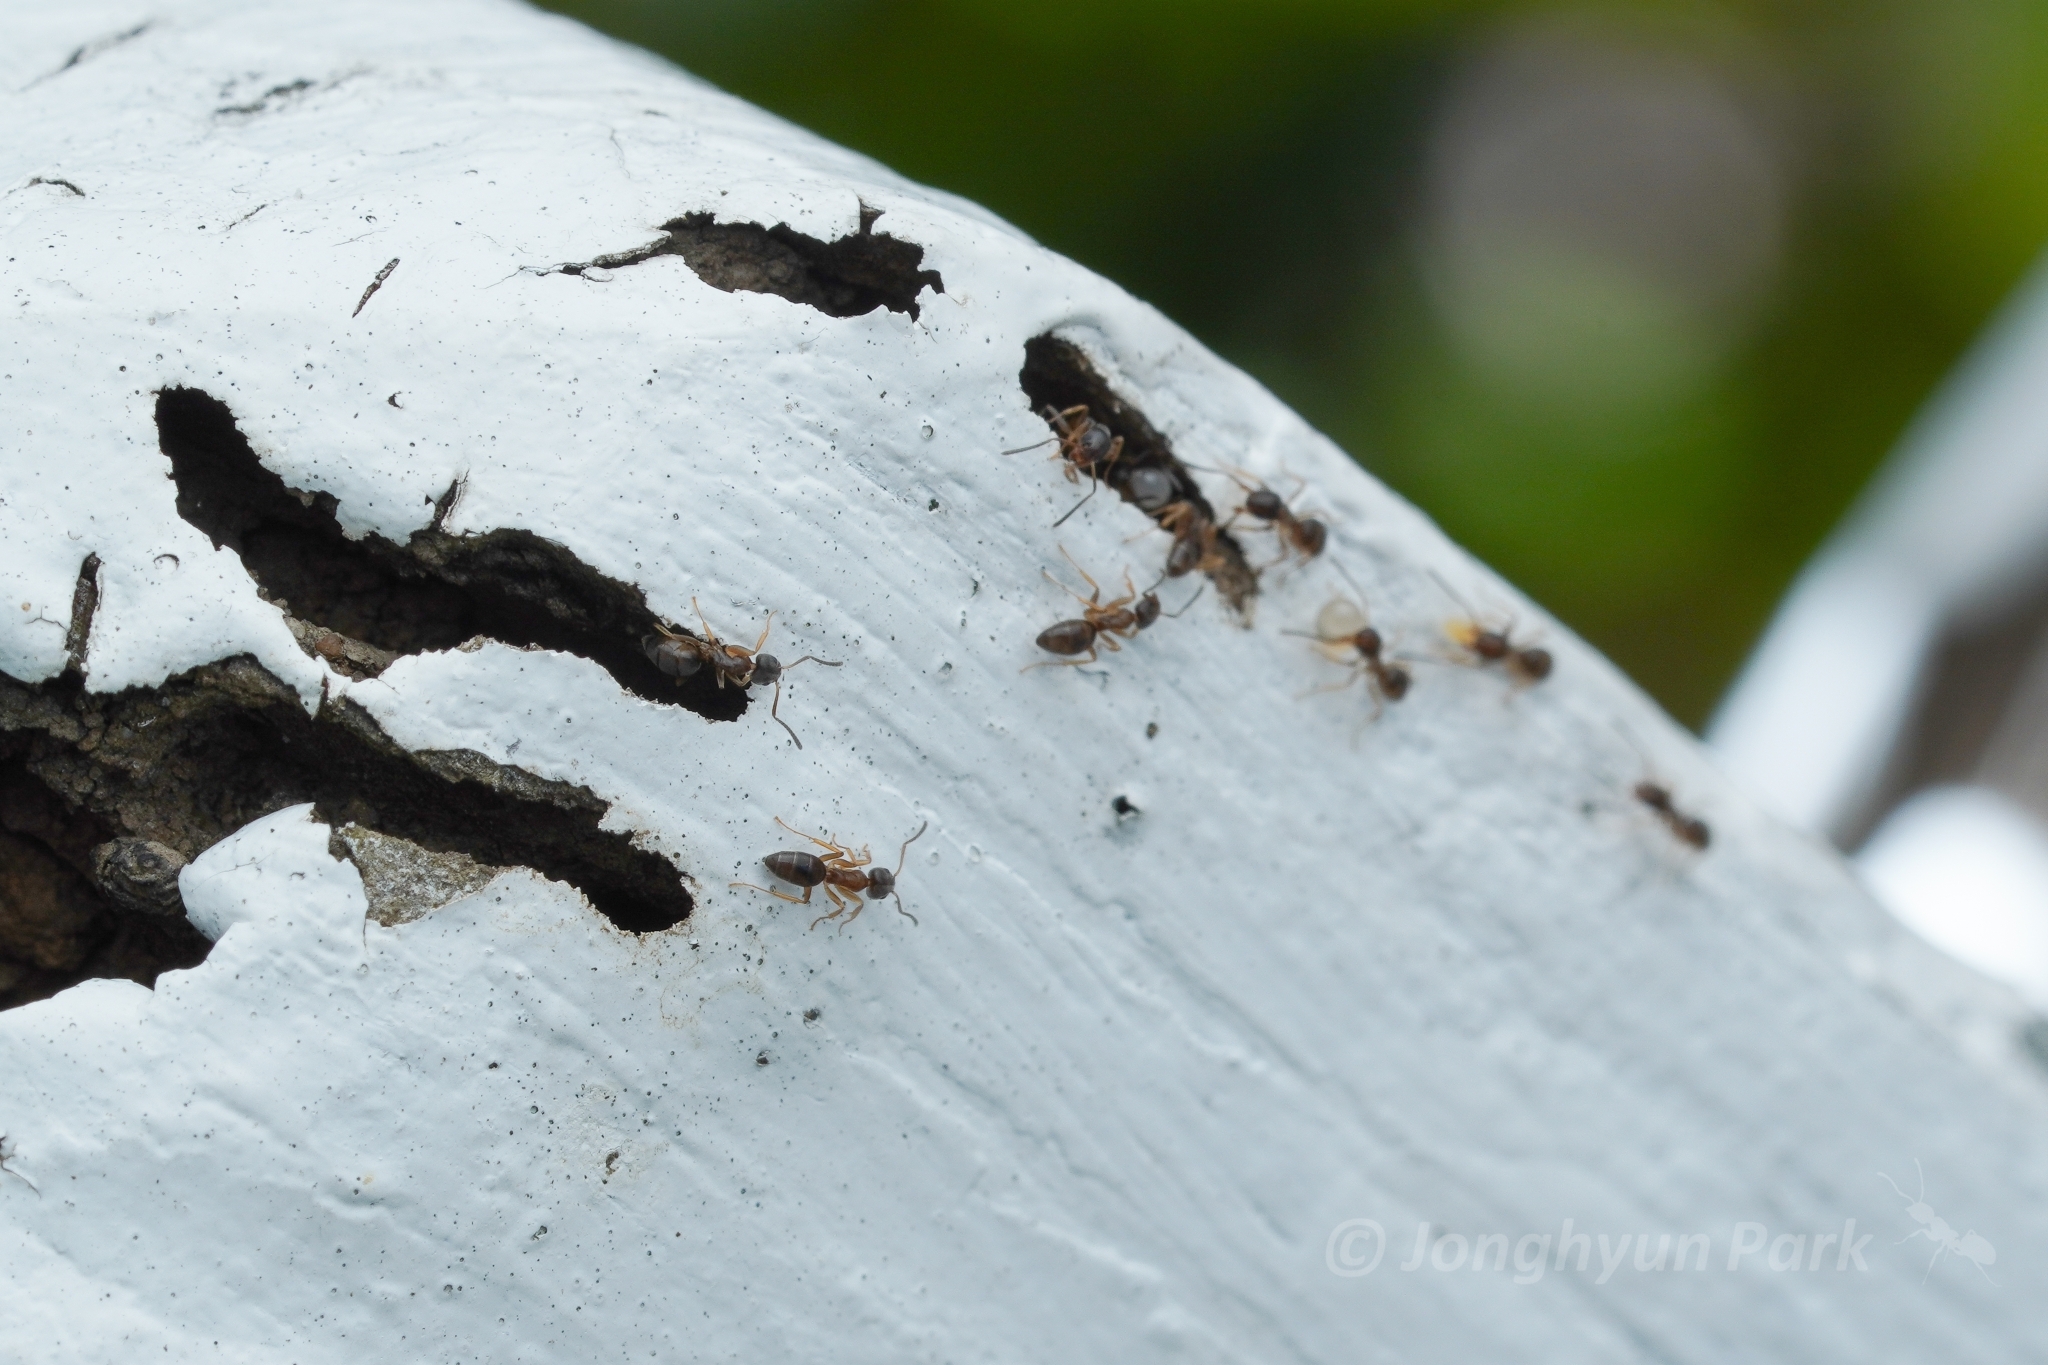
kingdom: Animalia
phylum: Arthropoda
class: Insecta
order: Hymenoptera
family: Formicidae
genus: Tapinoma
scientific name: Tapinoma sessile
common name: Odorous house ant
